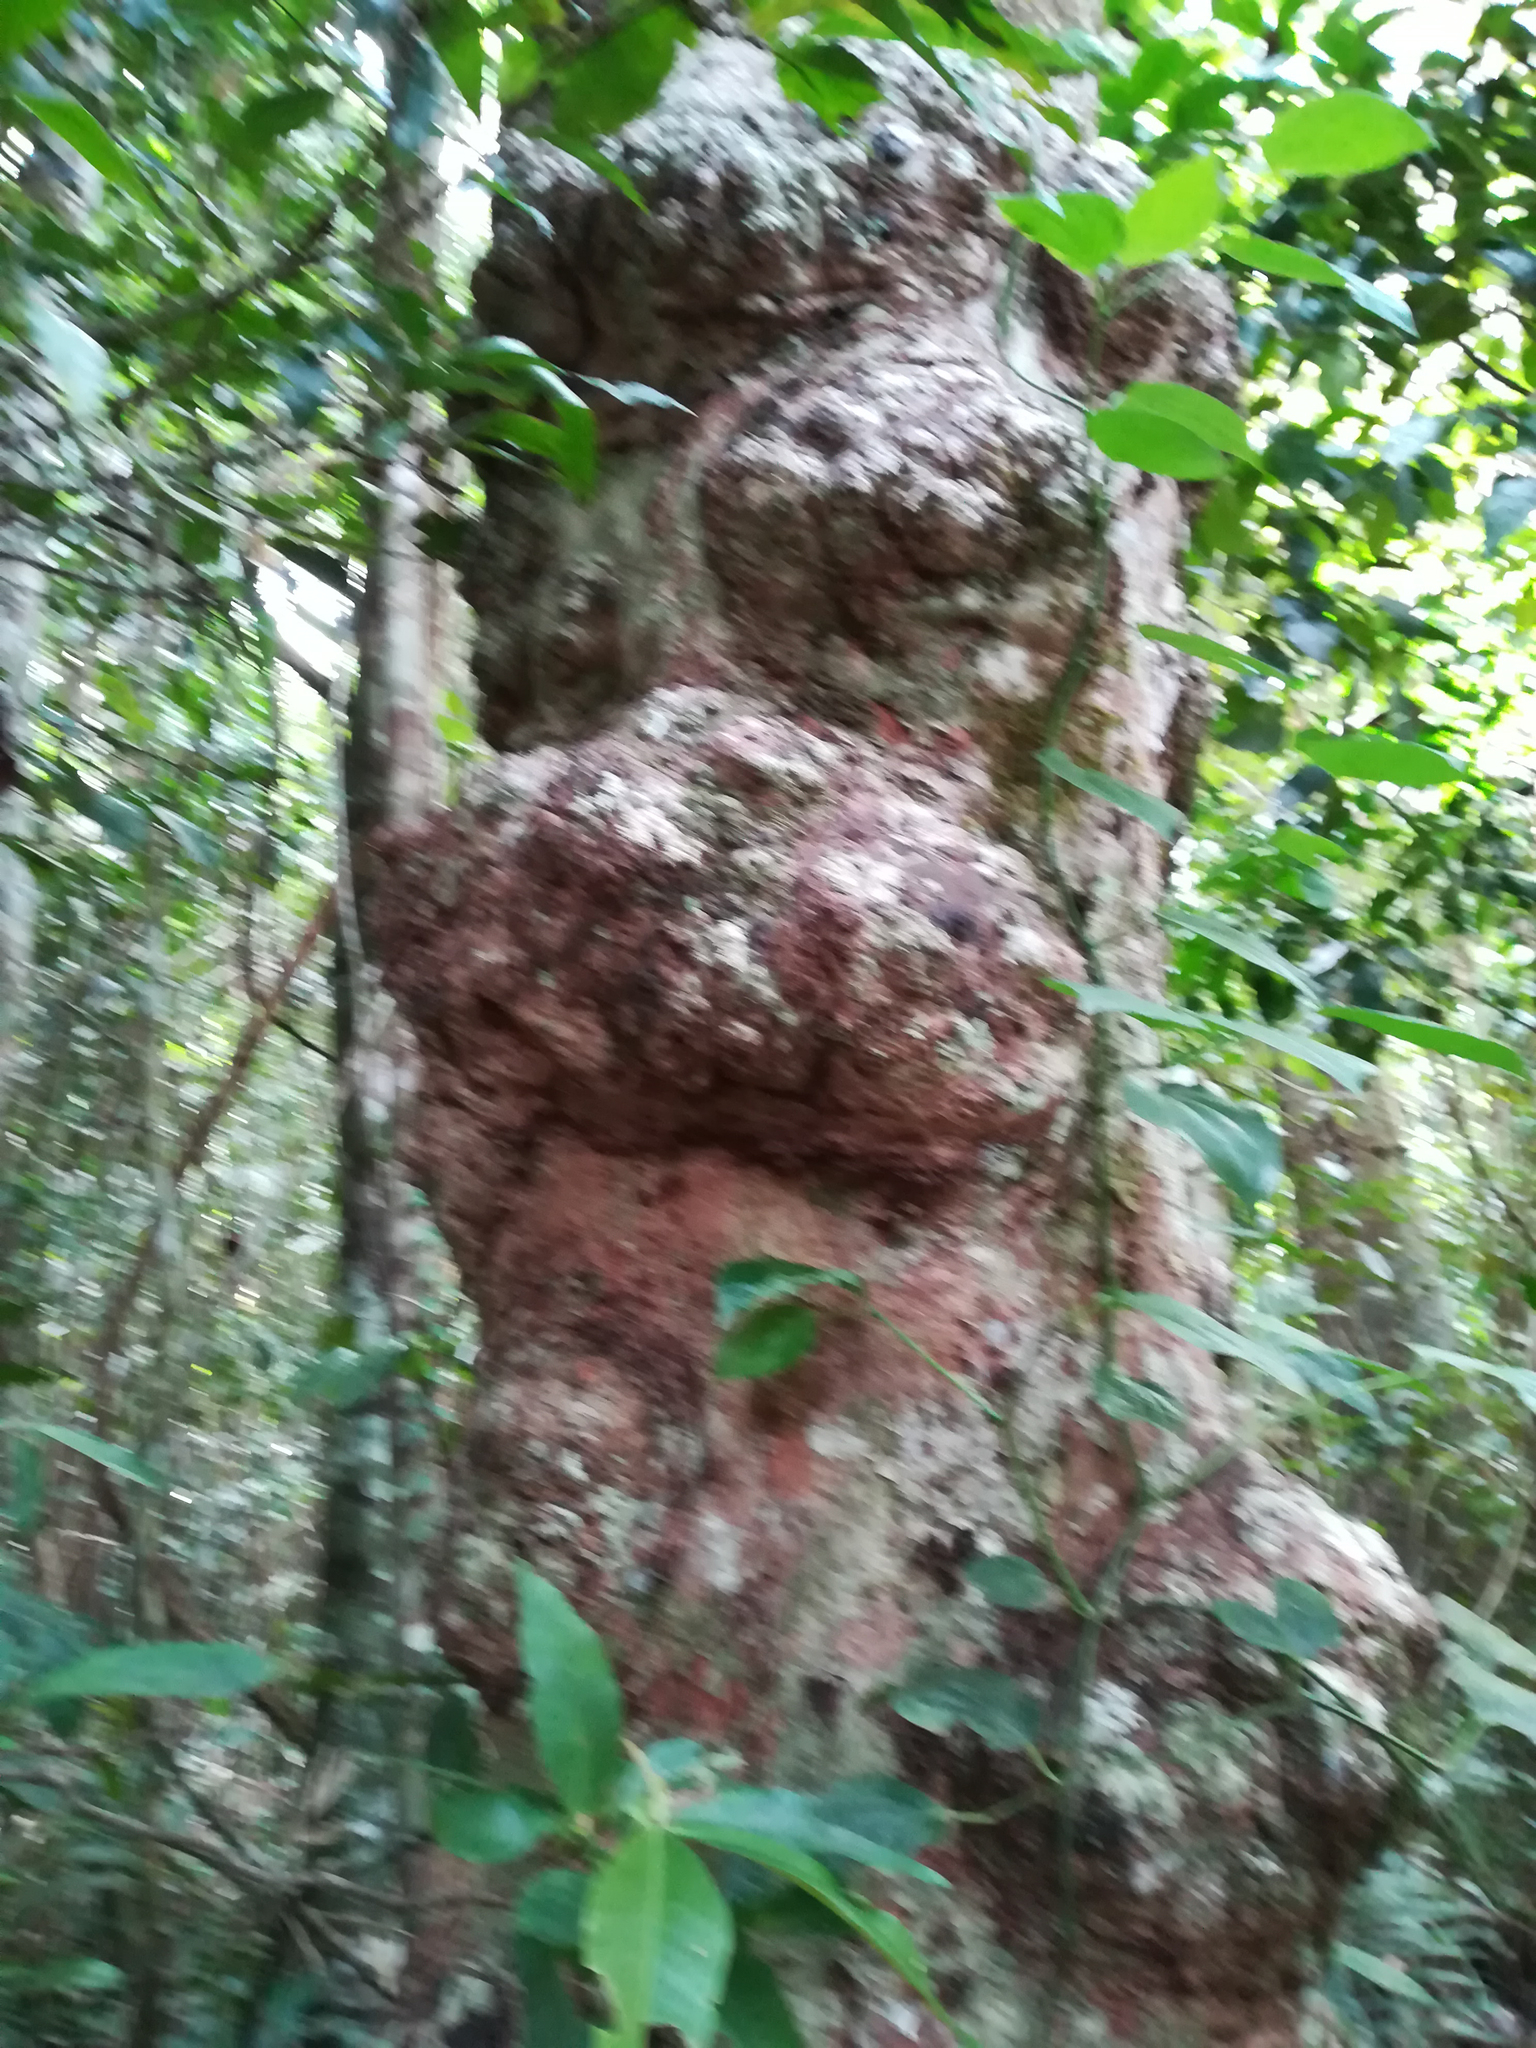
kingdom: Plantae
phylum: Tracheophyta
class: Magnoliopsida
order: Myrtales
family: Myrtaceae
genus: Syzygium
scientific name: Syzygium cormiflorum
